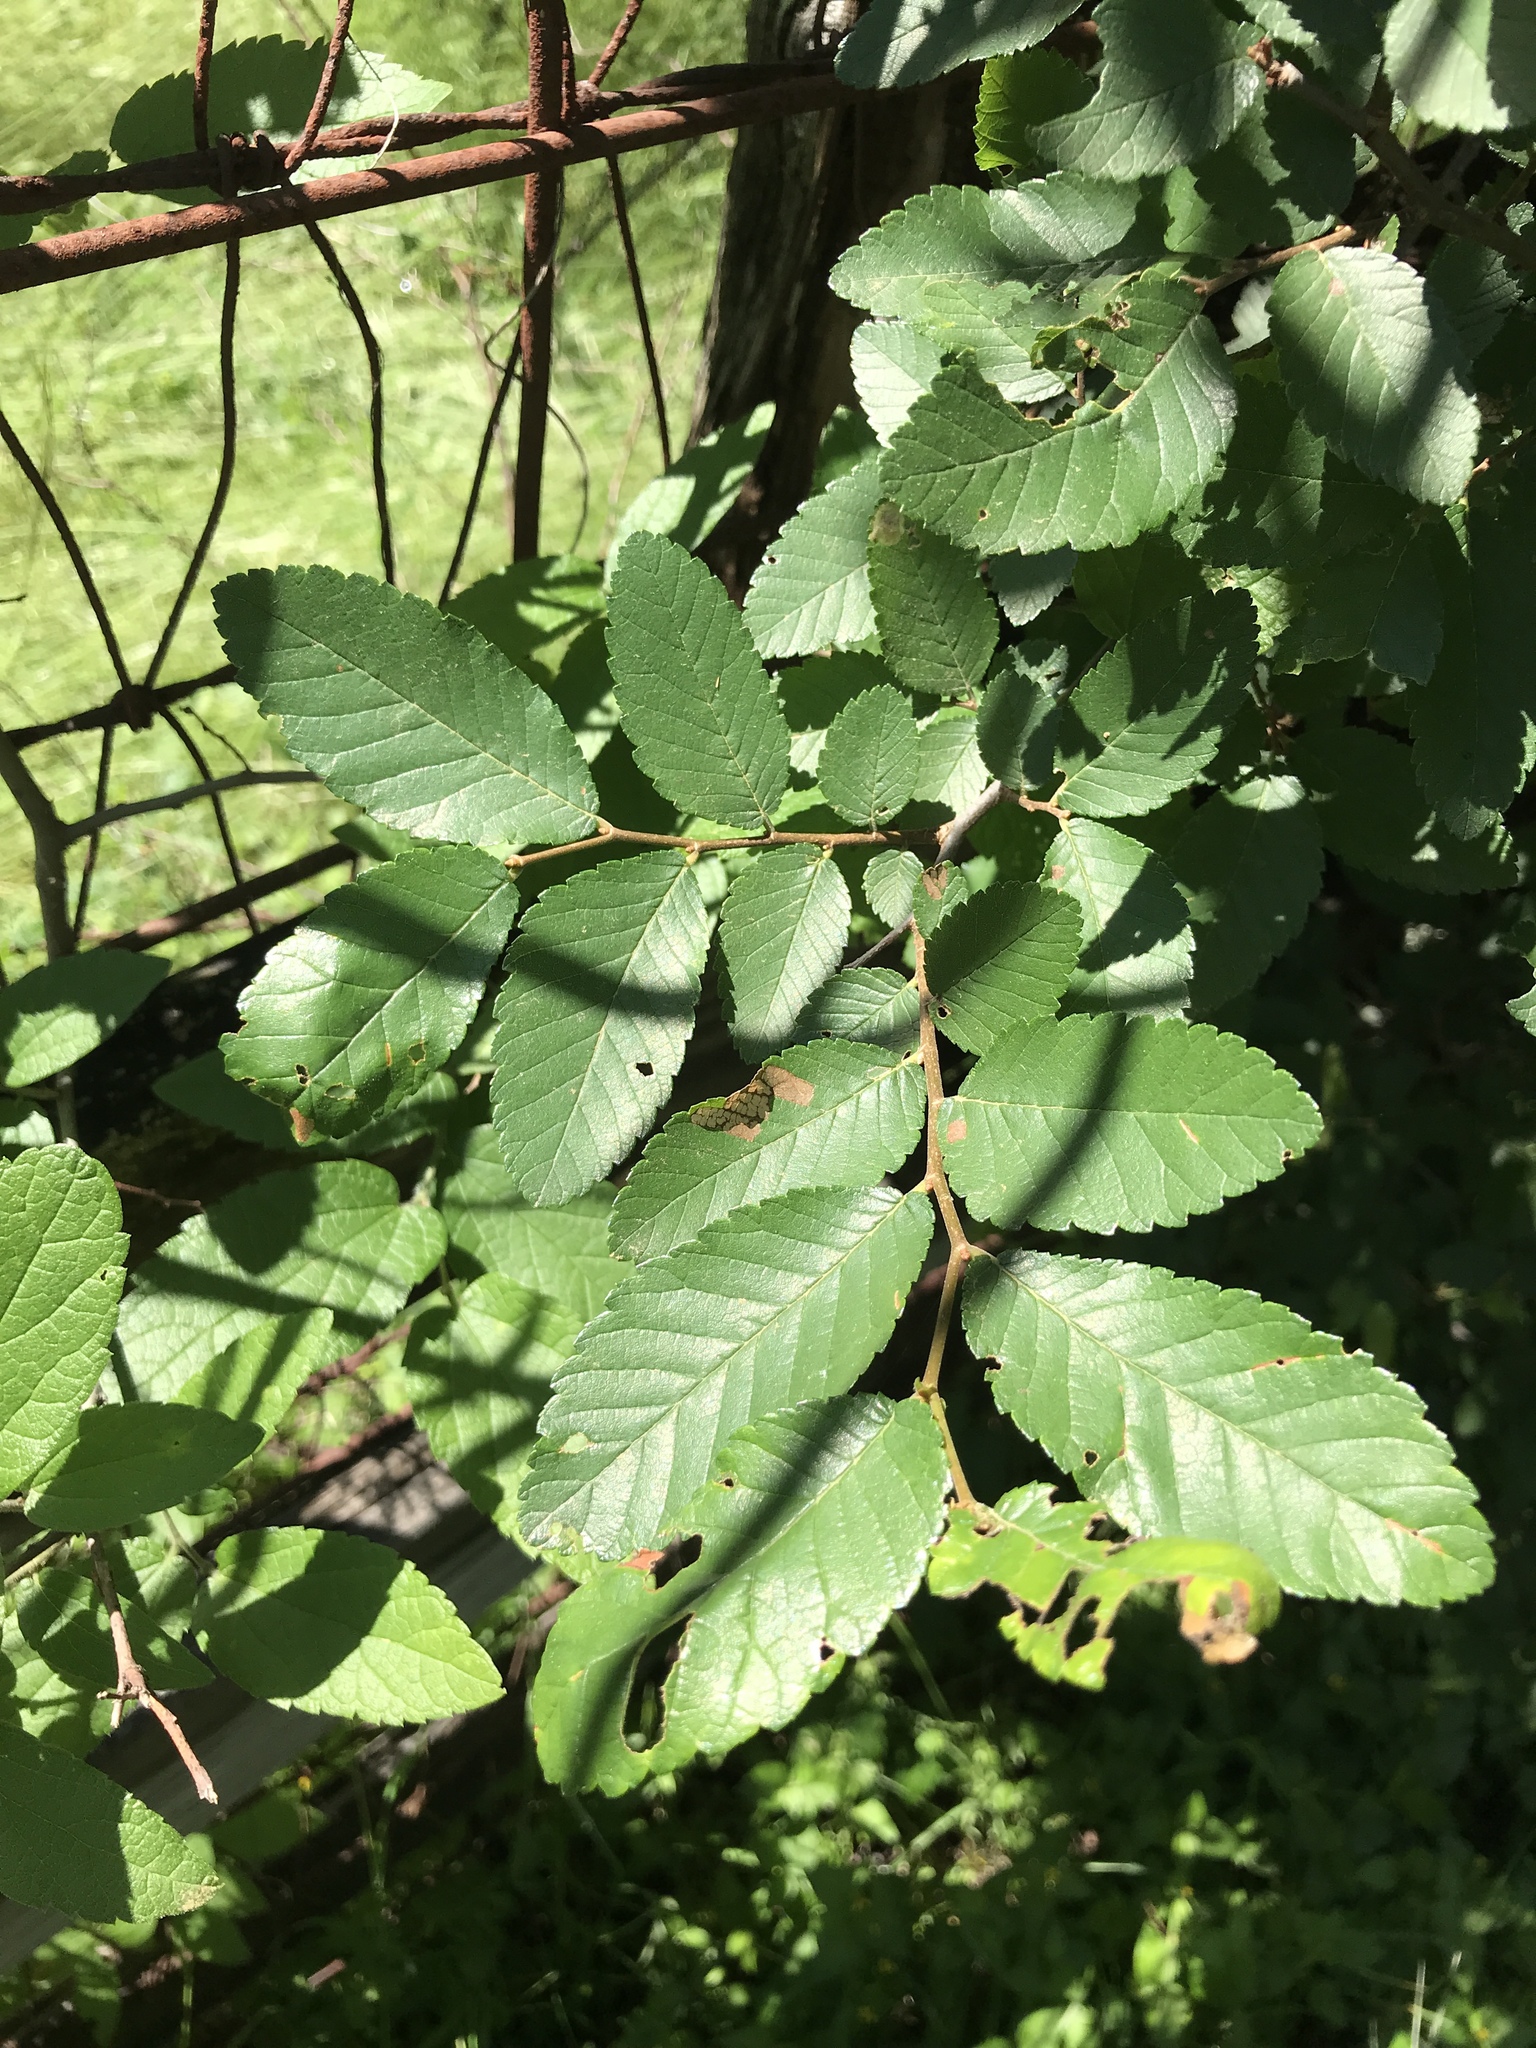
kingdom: Plantae
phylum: Tracheophyta
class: Magnoliopsida
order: Rosales
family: Ulmaceae
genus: Ulmus
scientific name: Ulmus crassifolia
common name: Basket elm
